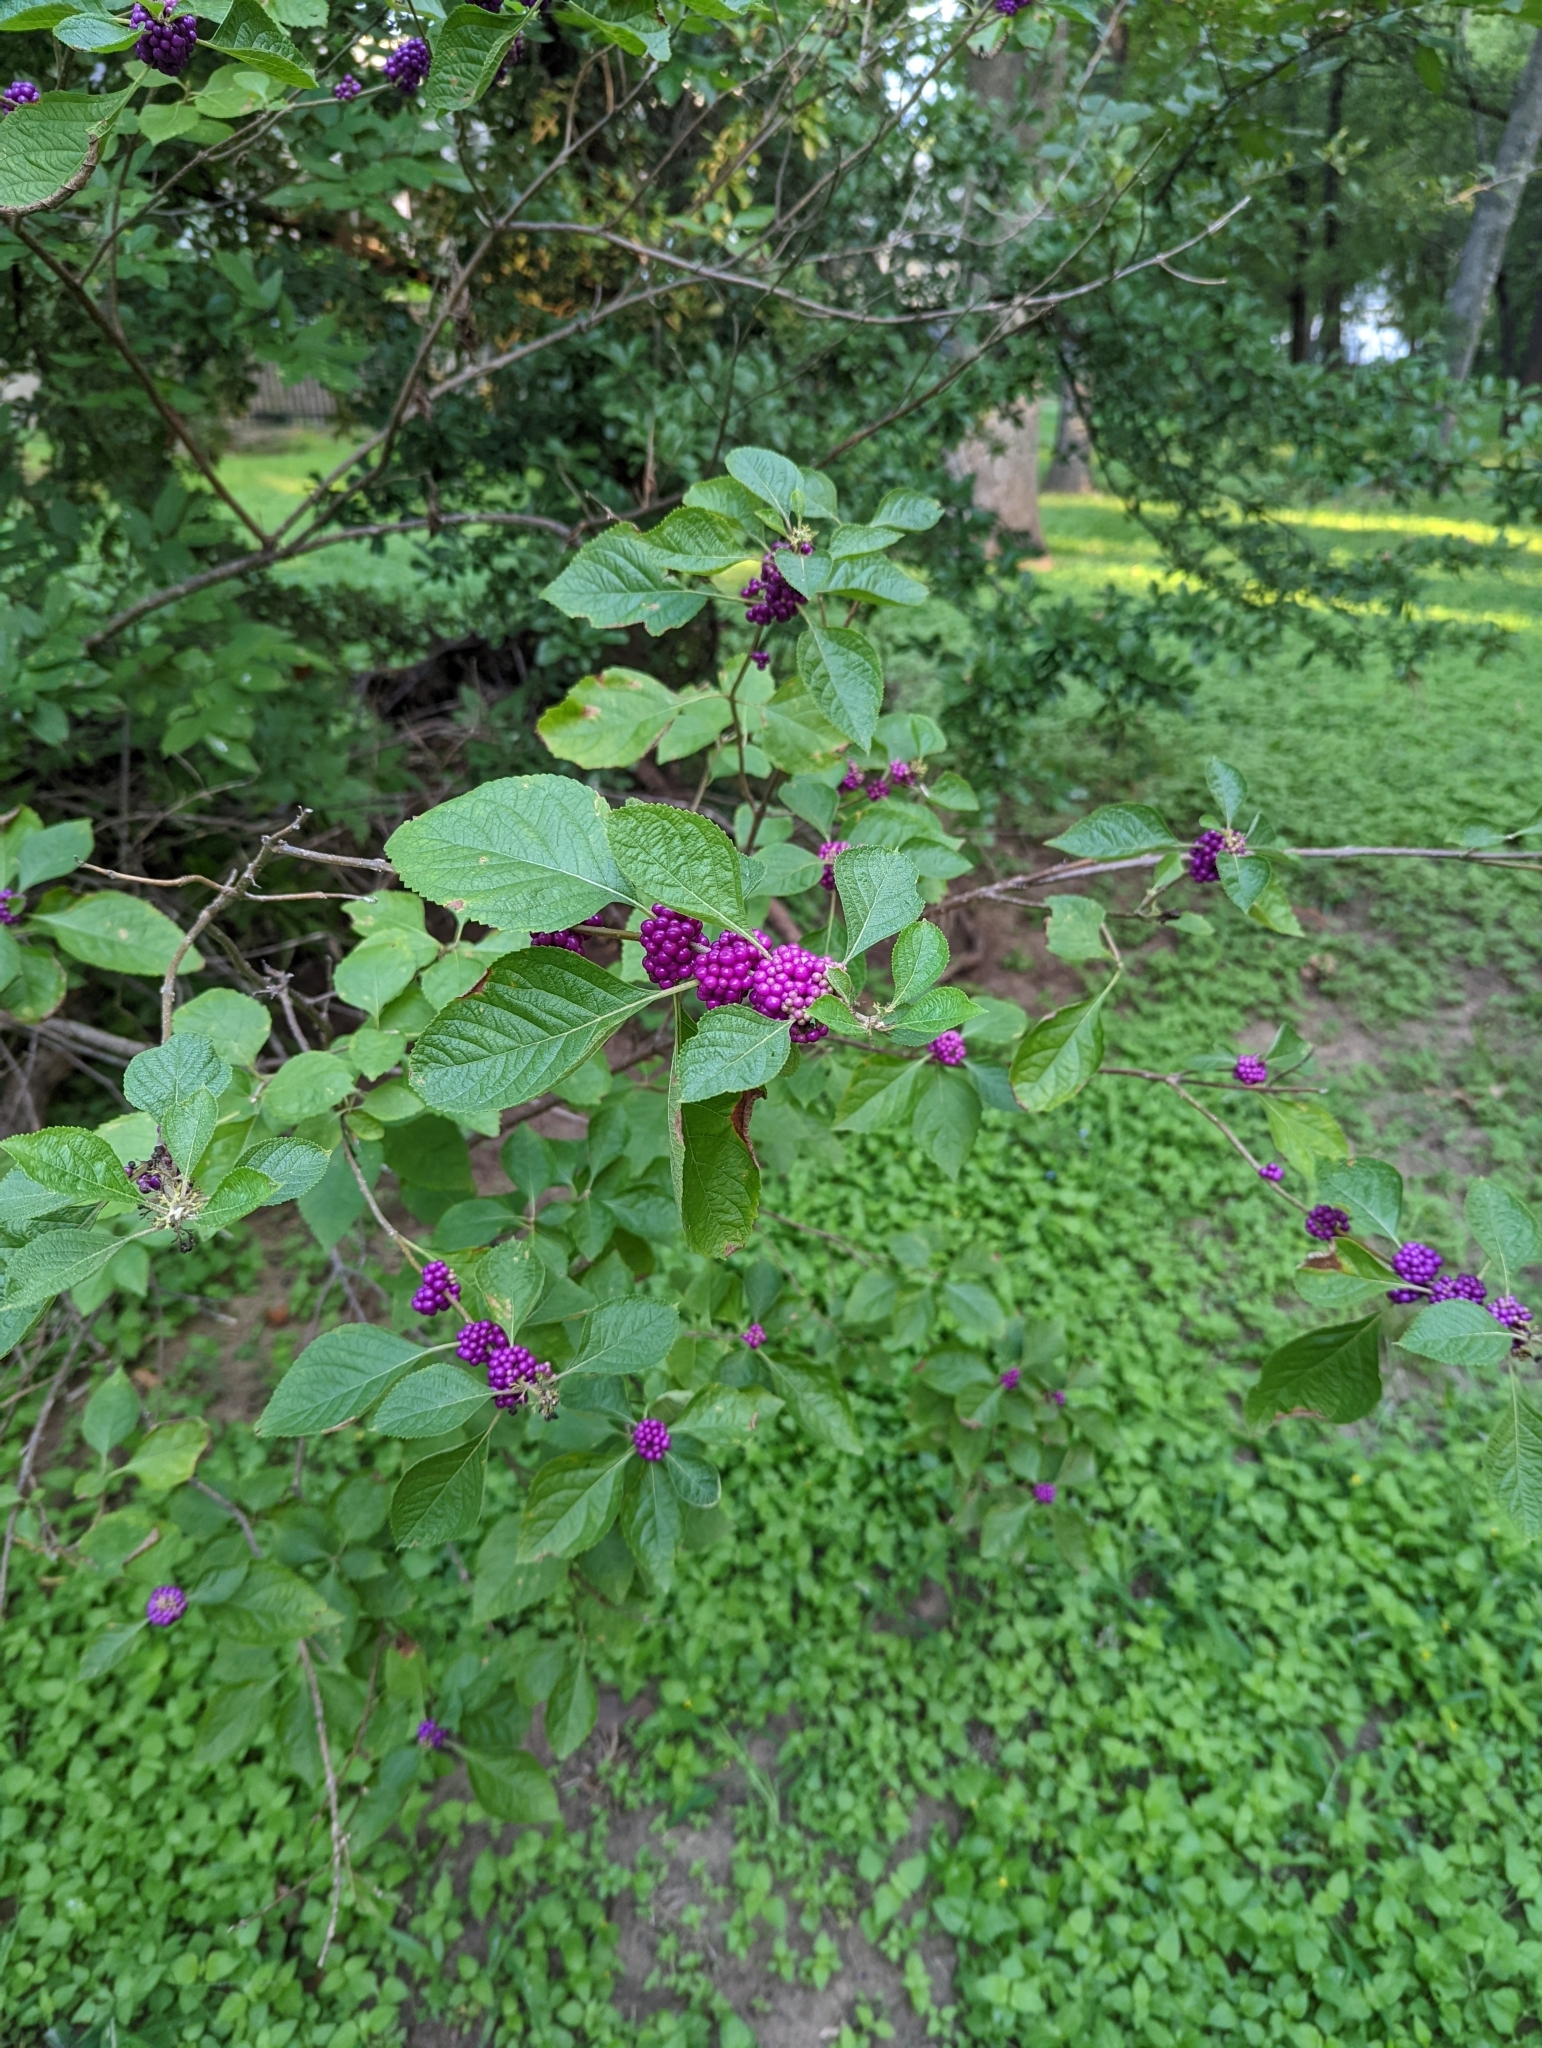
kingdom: Plantae
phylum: Tracheophyta
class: Magnoliopsida
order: Lamiales
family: Lamiaceae
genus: Callicarpa
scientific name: Callicarpa americana
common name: American beautyberry
